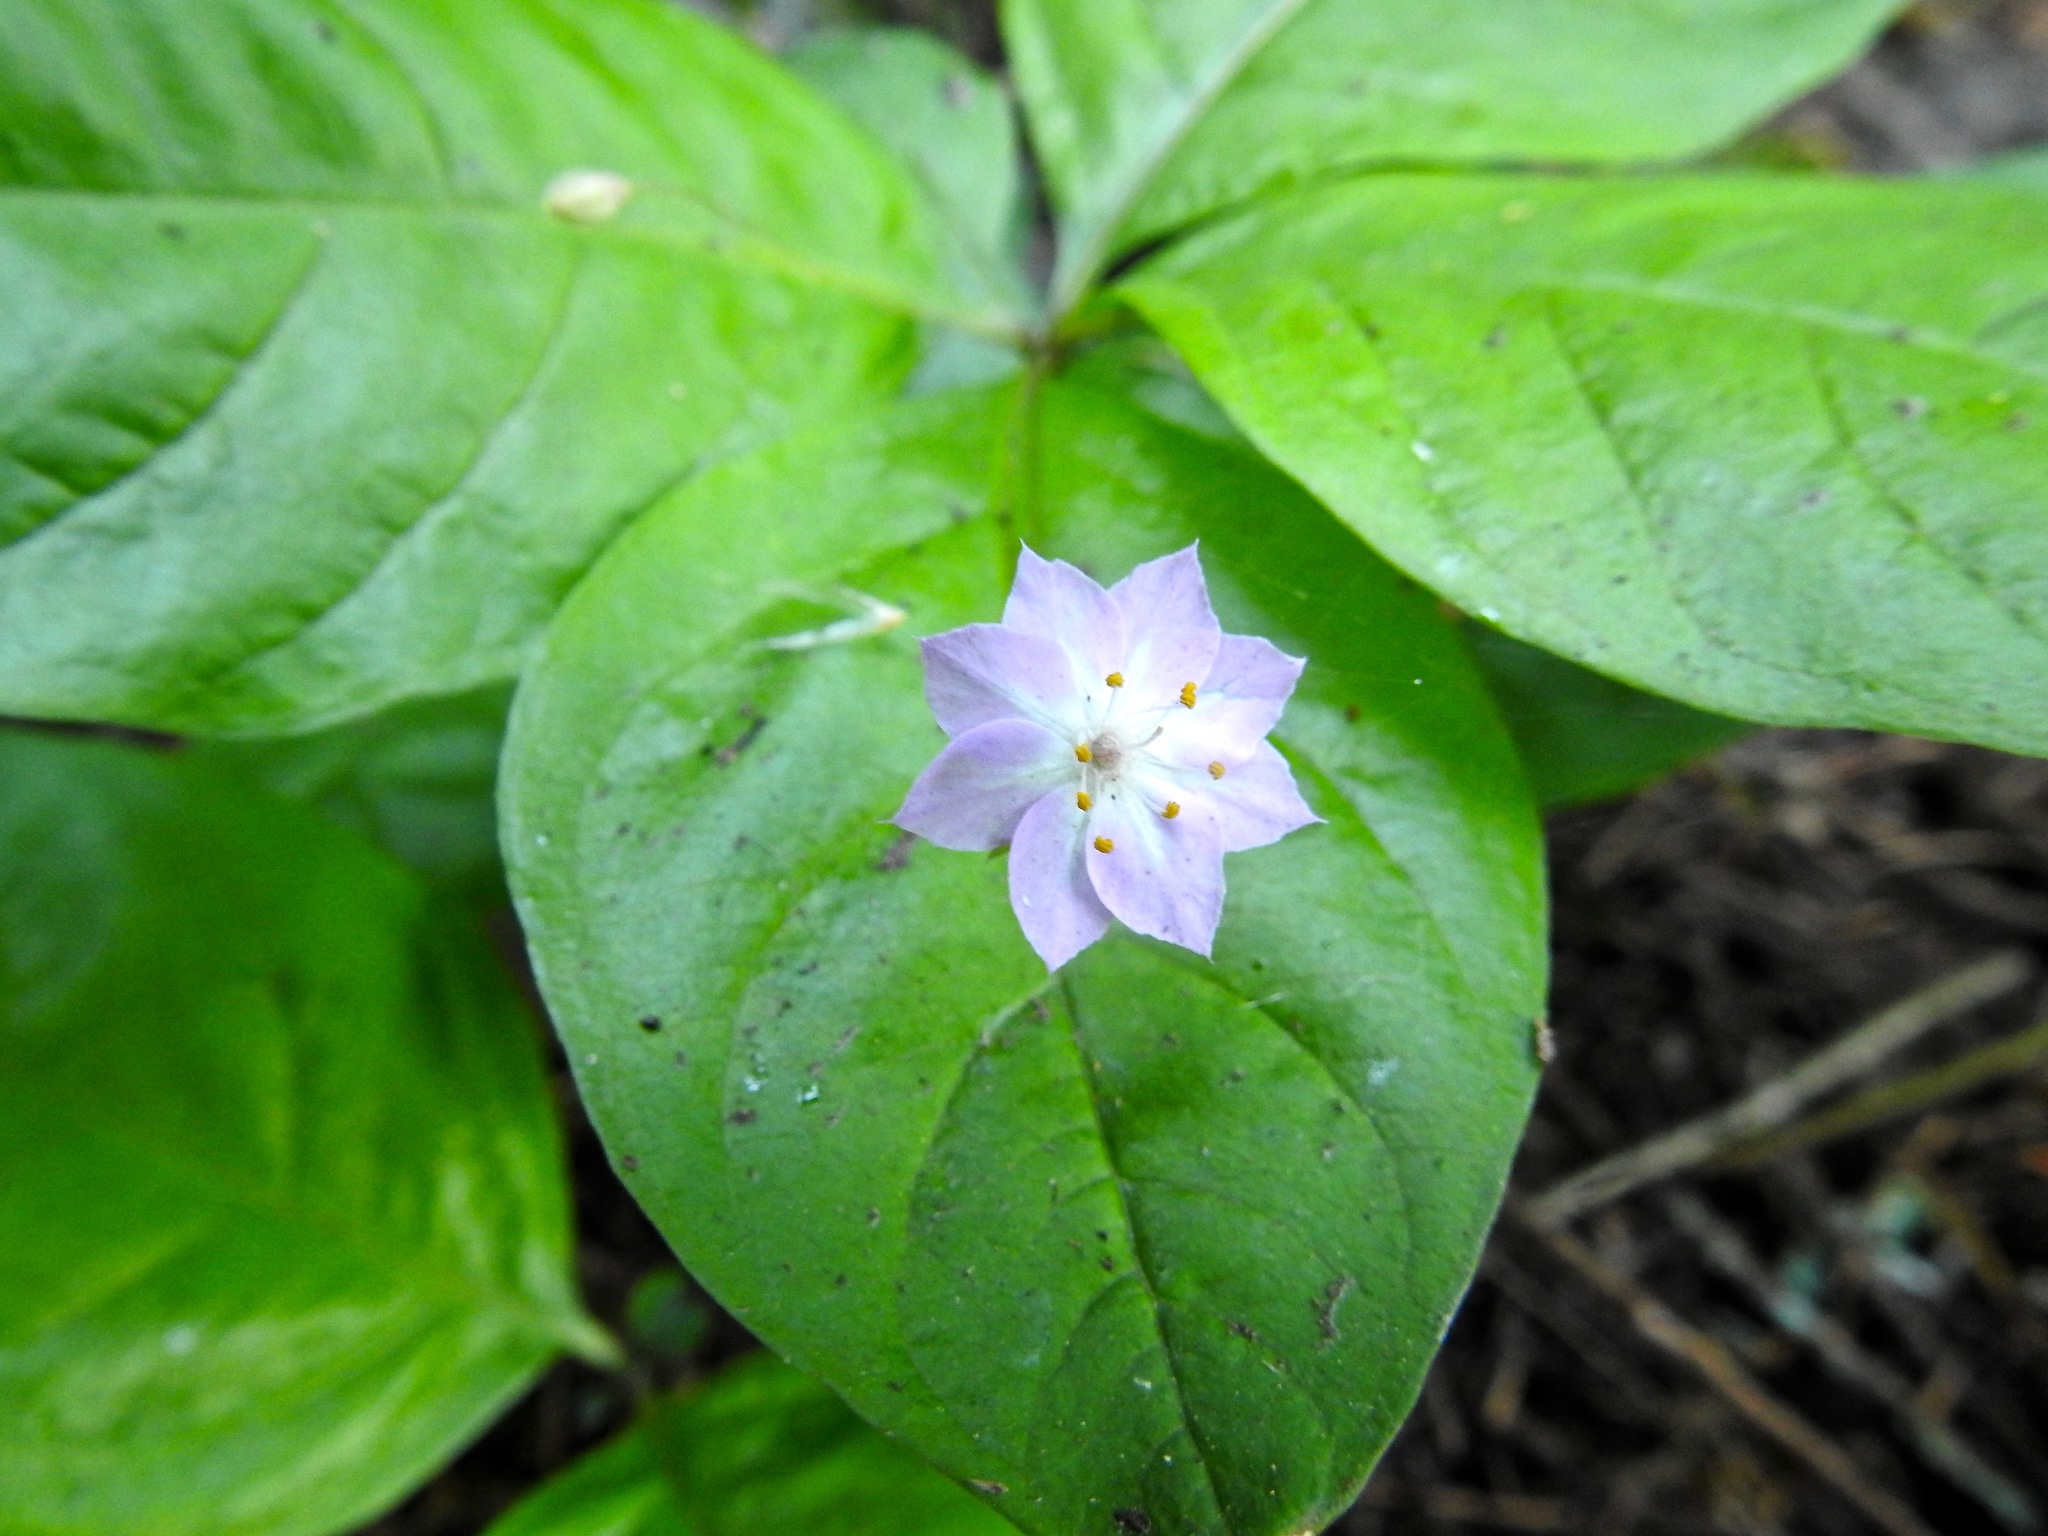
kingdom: Plantae
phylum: Tracheophyta
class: Magnoliopsida
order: Ericales
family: Primulaceae
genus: Lysimachia
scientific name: Lysimachia latifolia
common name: Pacific starflower
